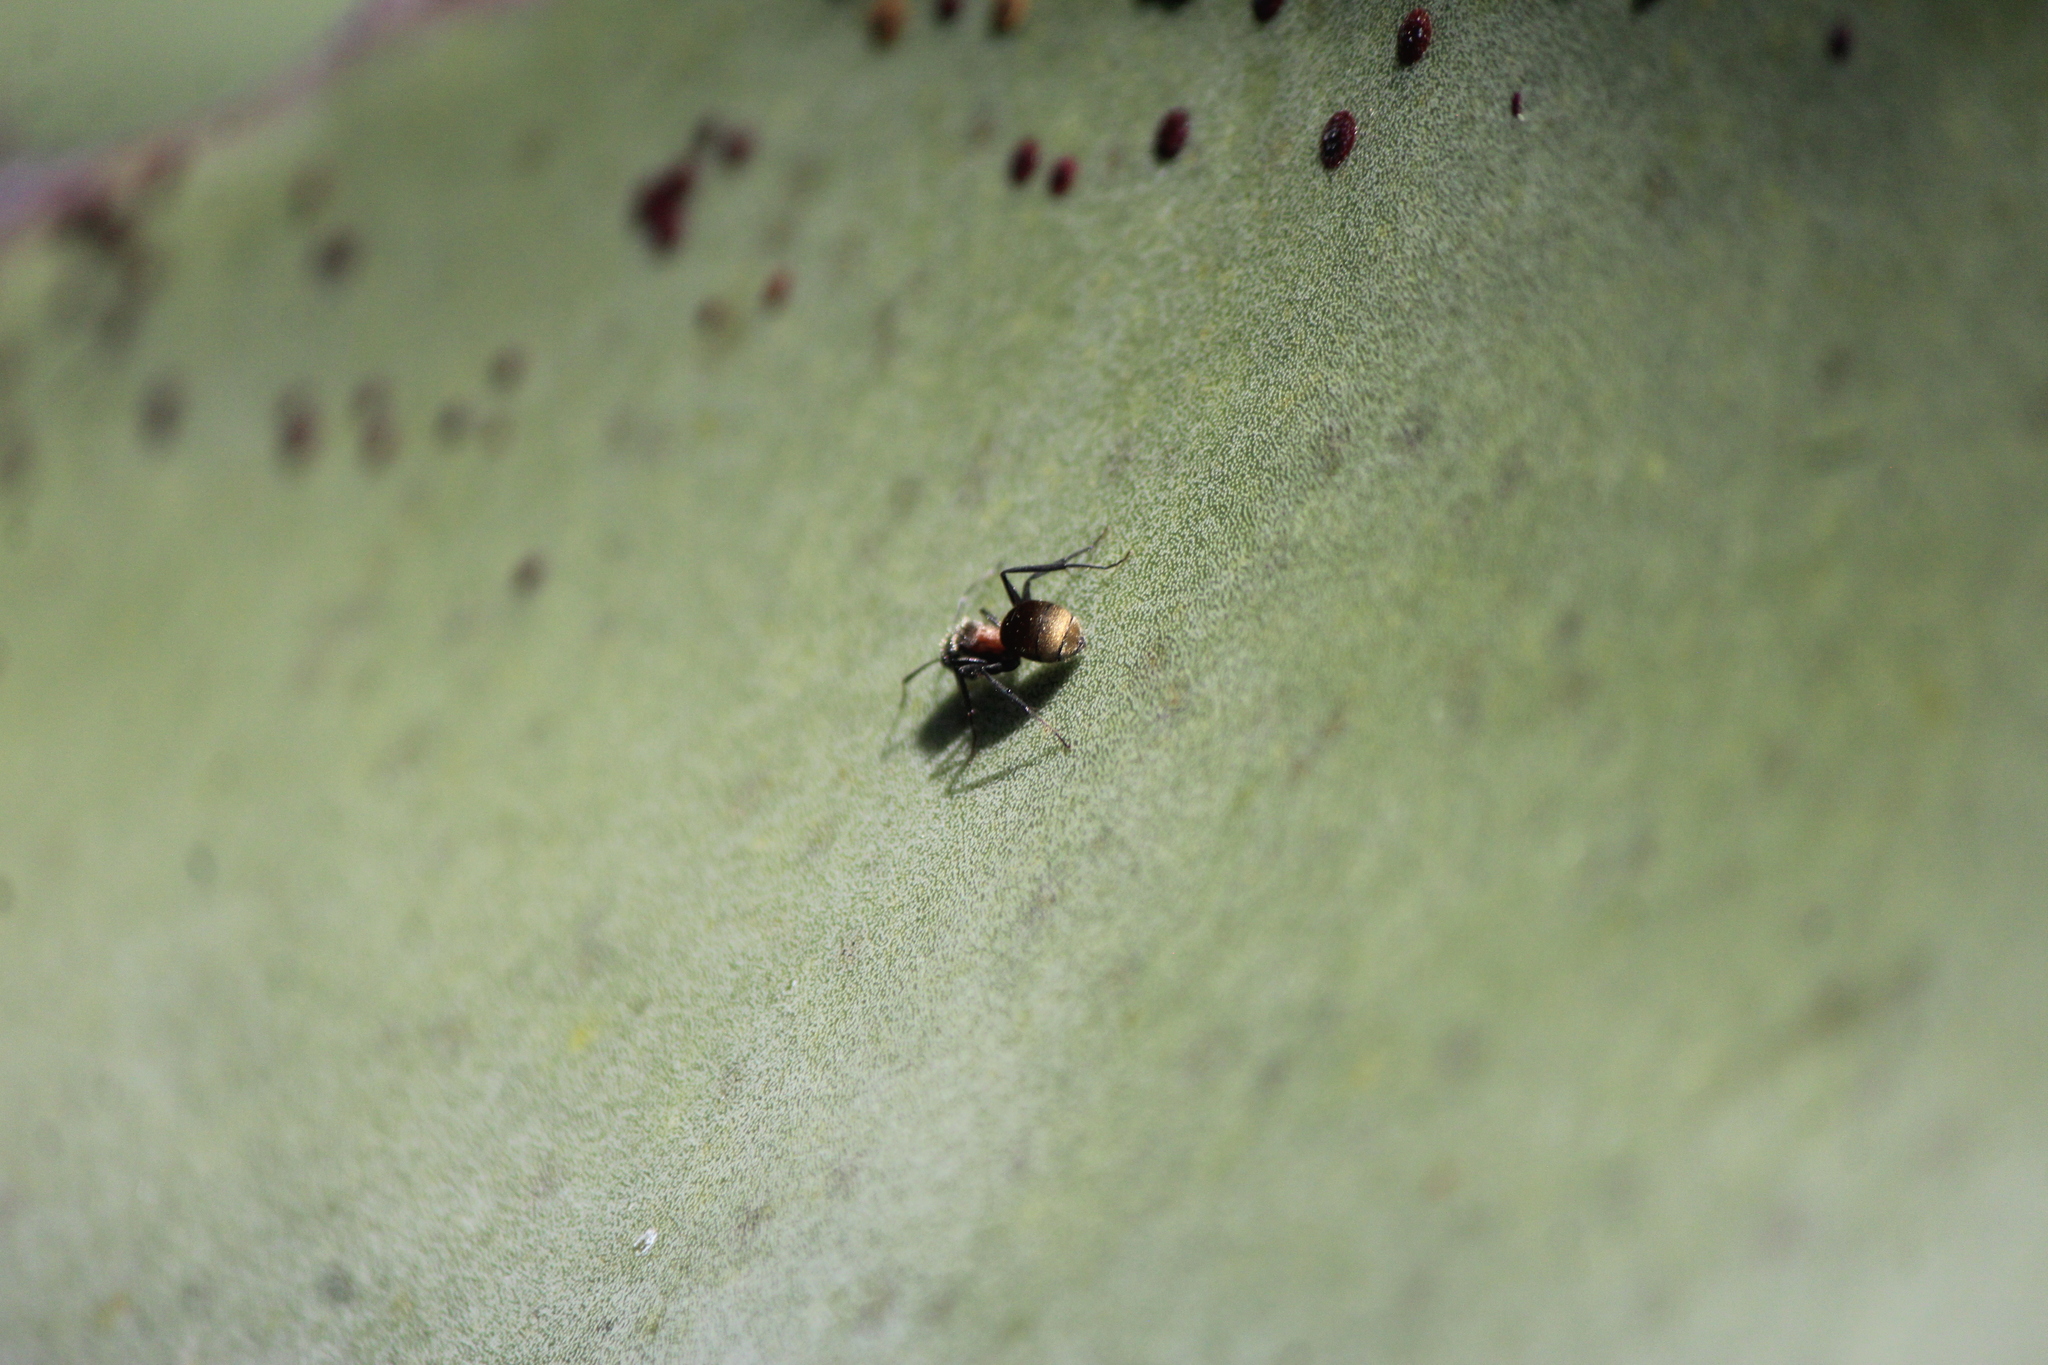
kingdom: Animalia
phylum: Arthropoda
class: Insecta
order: Hymenoptera
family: Formicidae
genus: Camponotus
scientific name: Camponotus pellarius
